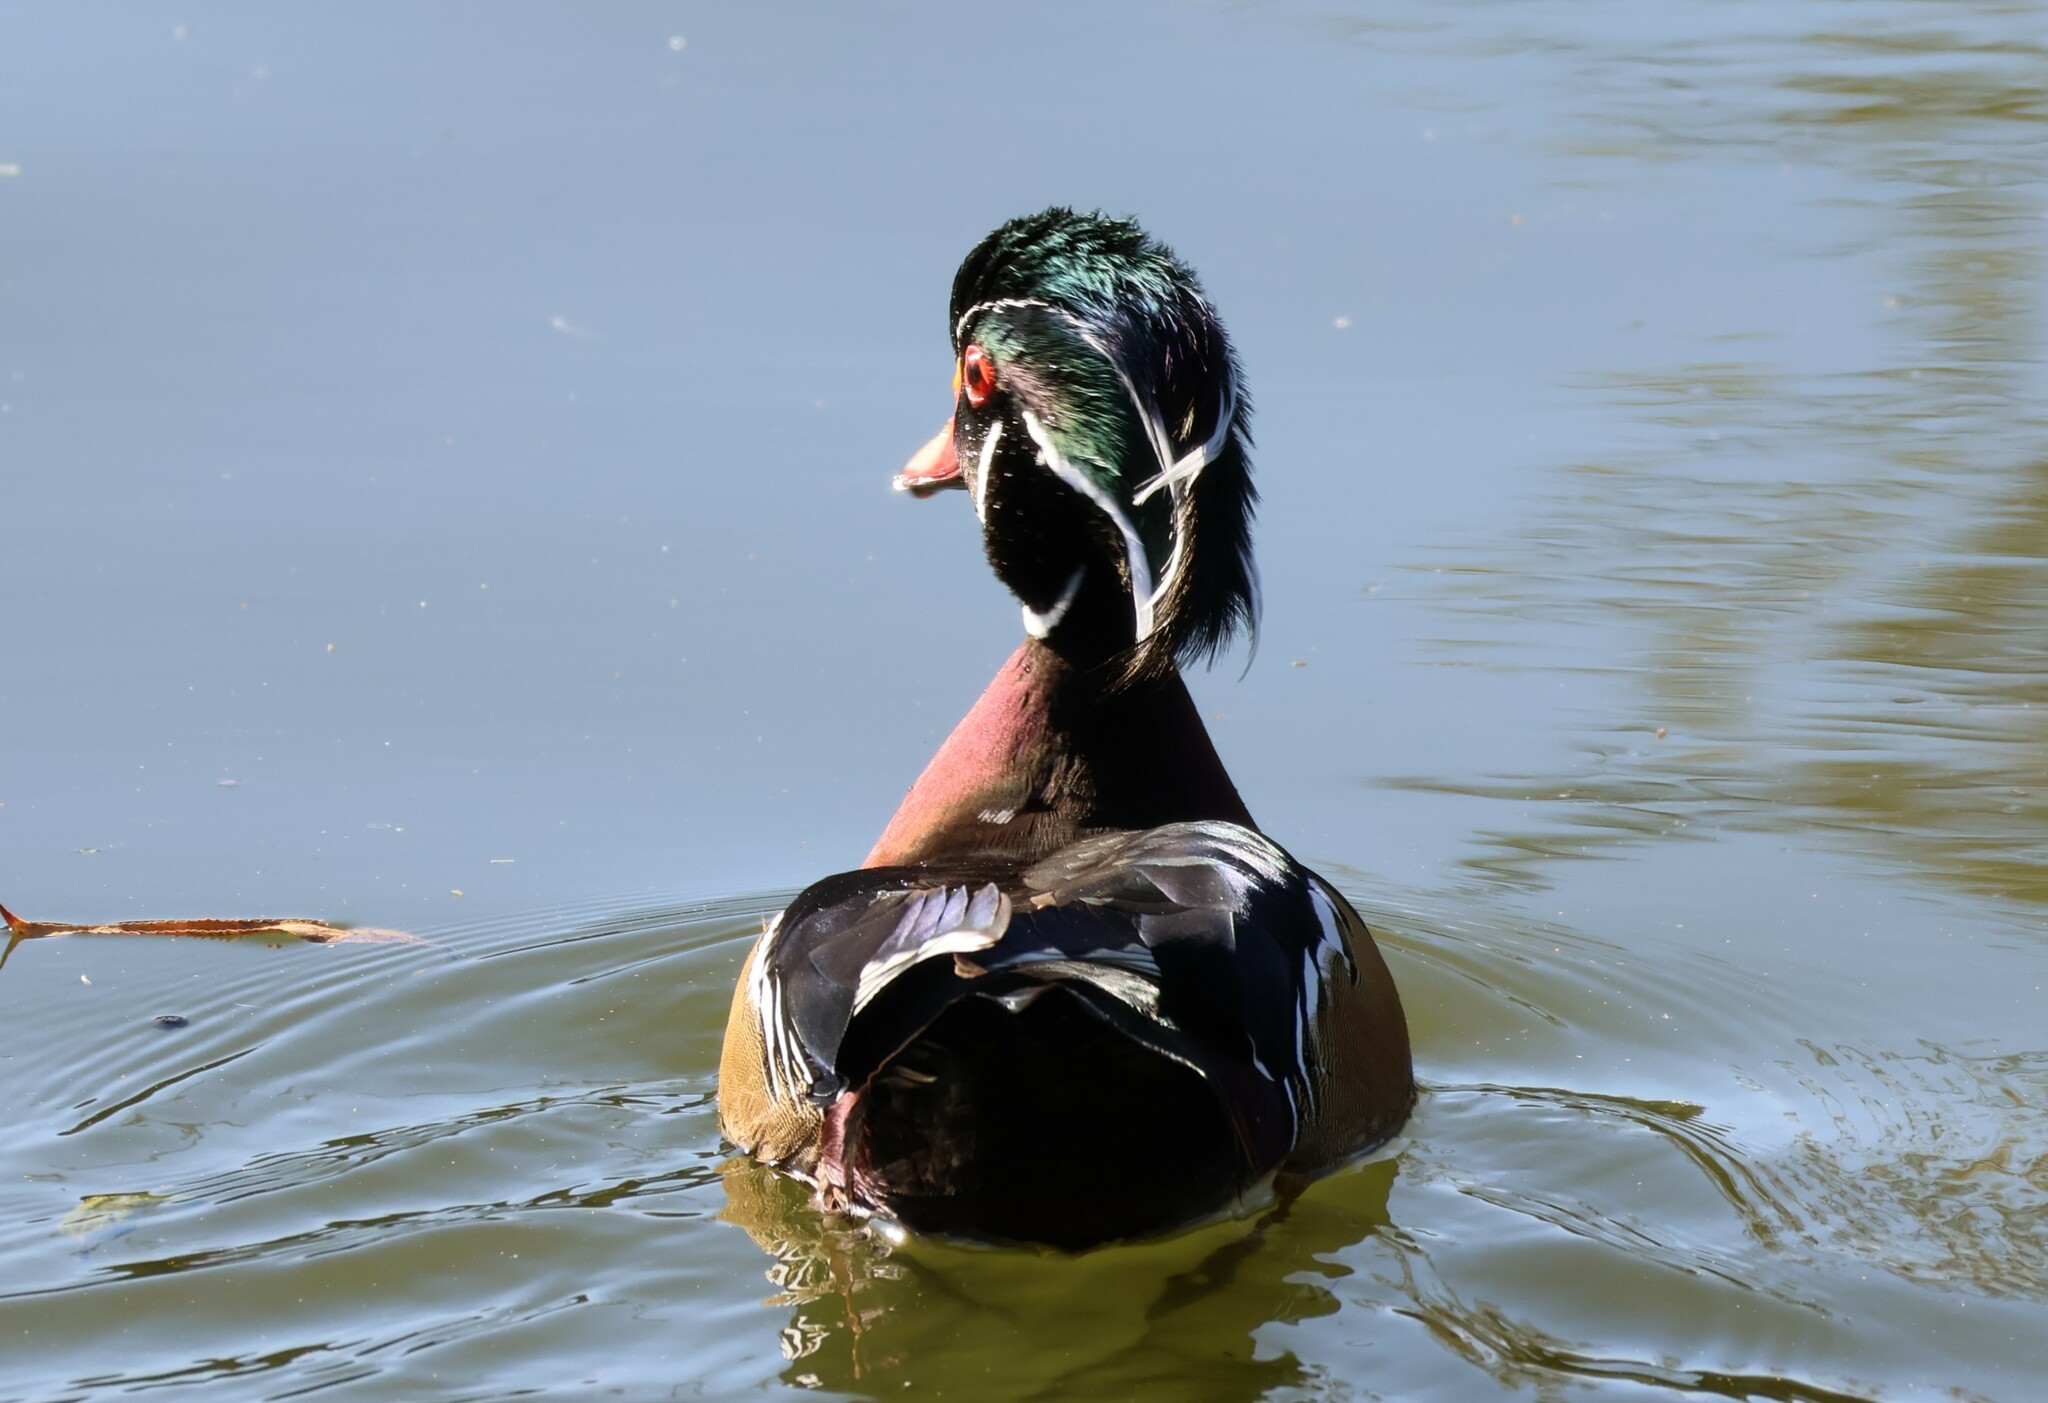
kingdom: Animalia
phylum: Chordata
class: Aves
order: Anseriformes
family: Anatidae
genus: Aix
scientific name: Aix sponsa
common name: Wood duck
